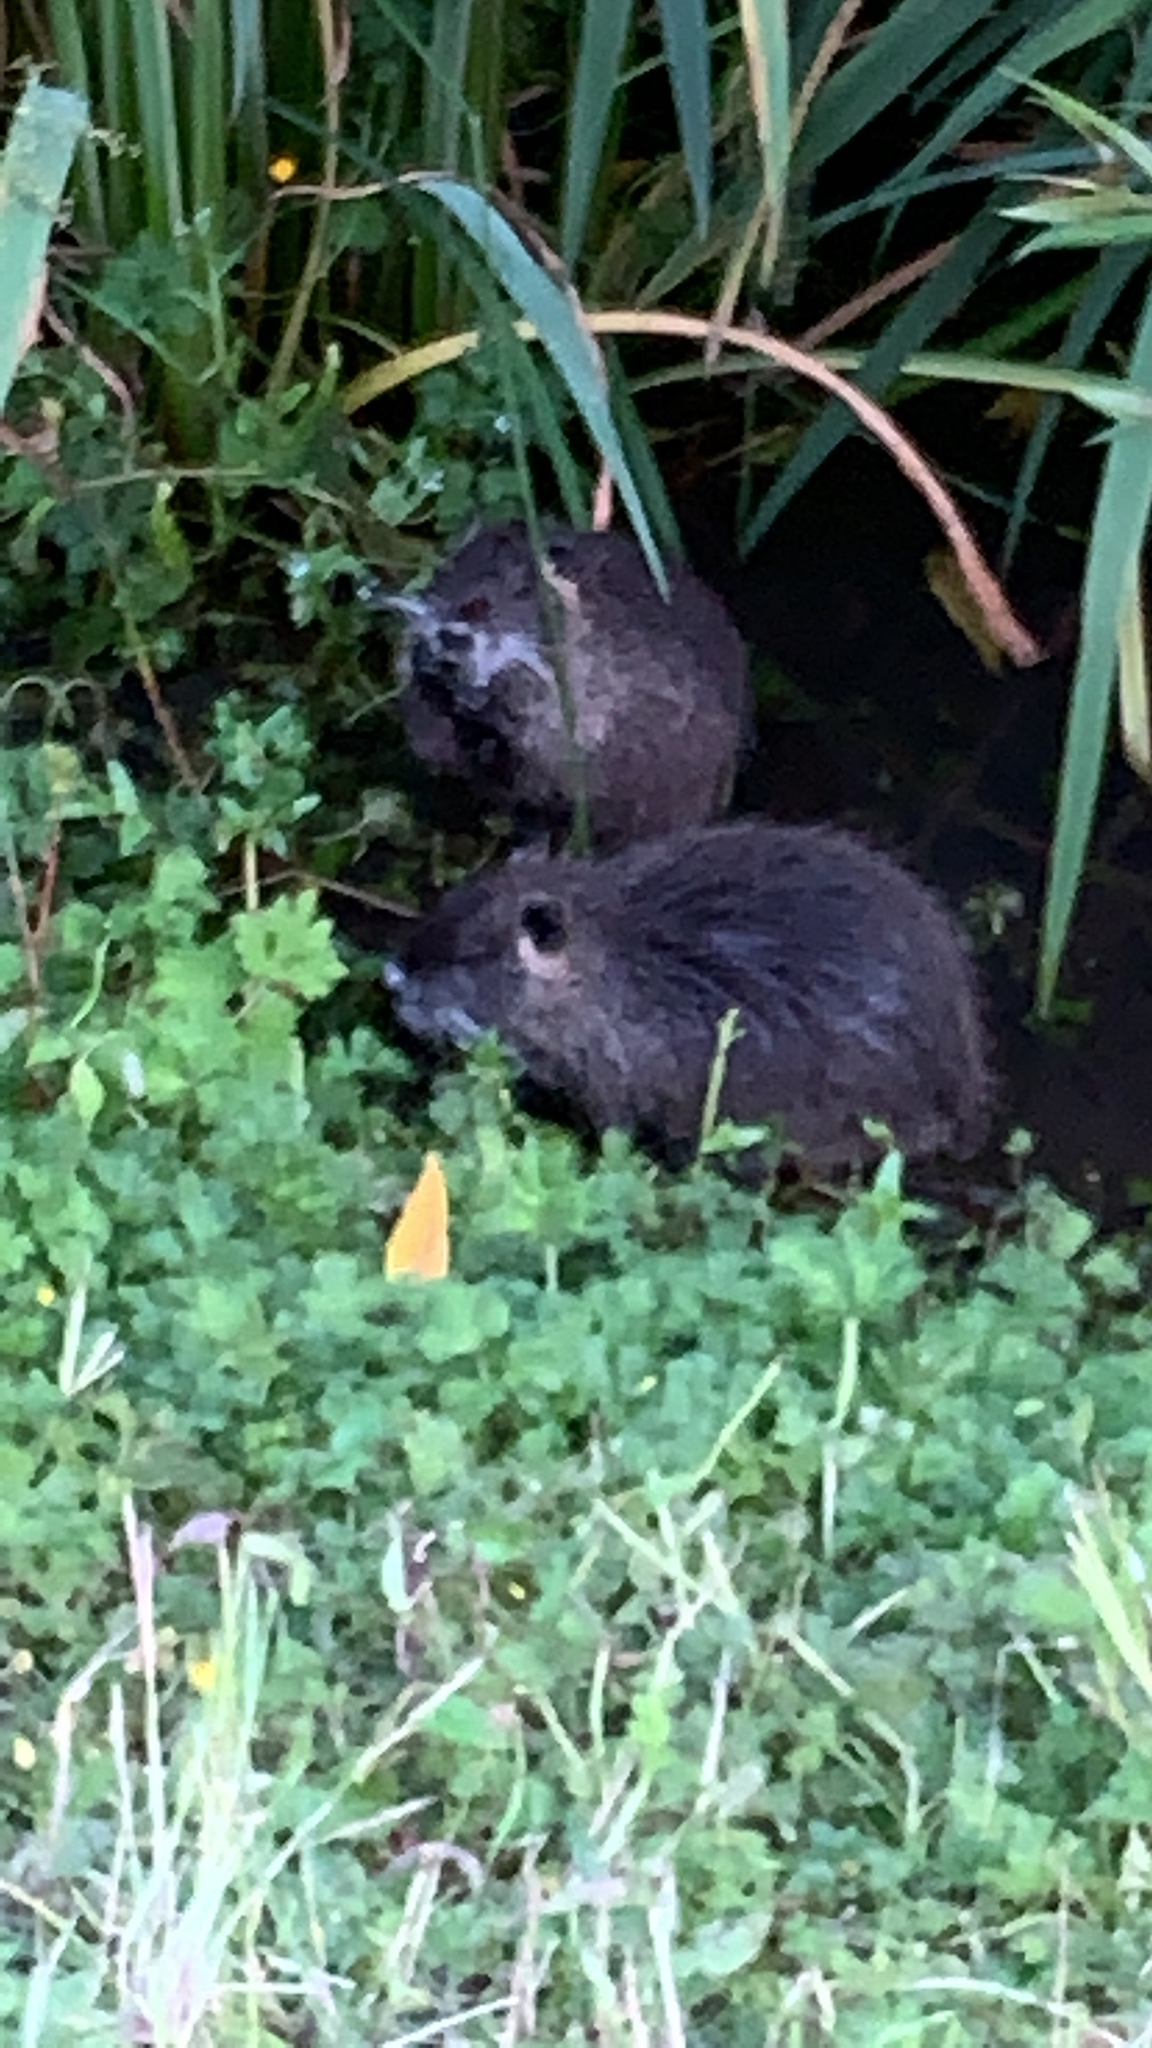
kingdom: Animalia
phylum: Chordata
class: Mammalia
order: Rodentia
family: Myocastoridae
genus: Myocastor
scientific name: Myocastor coypus
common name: Coypu
